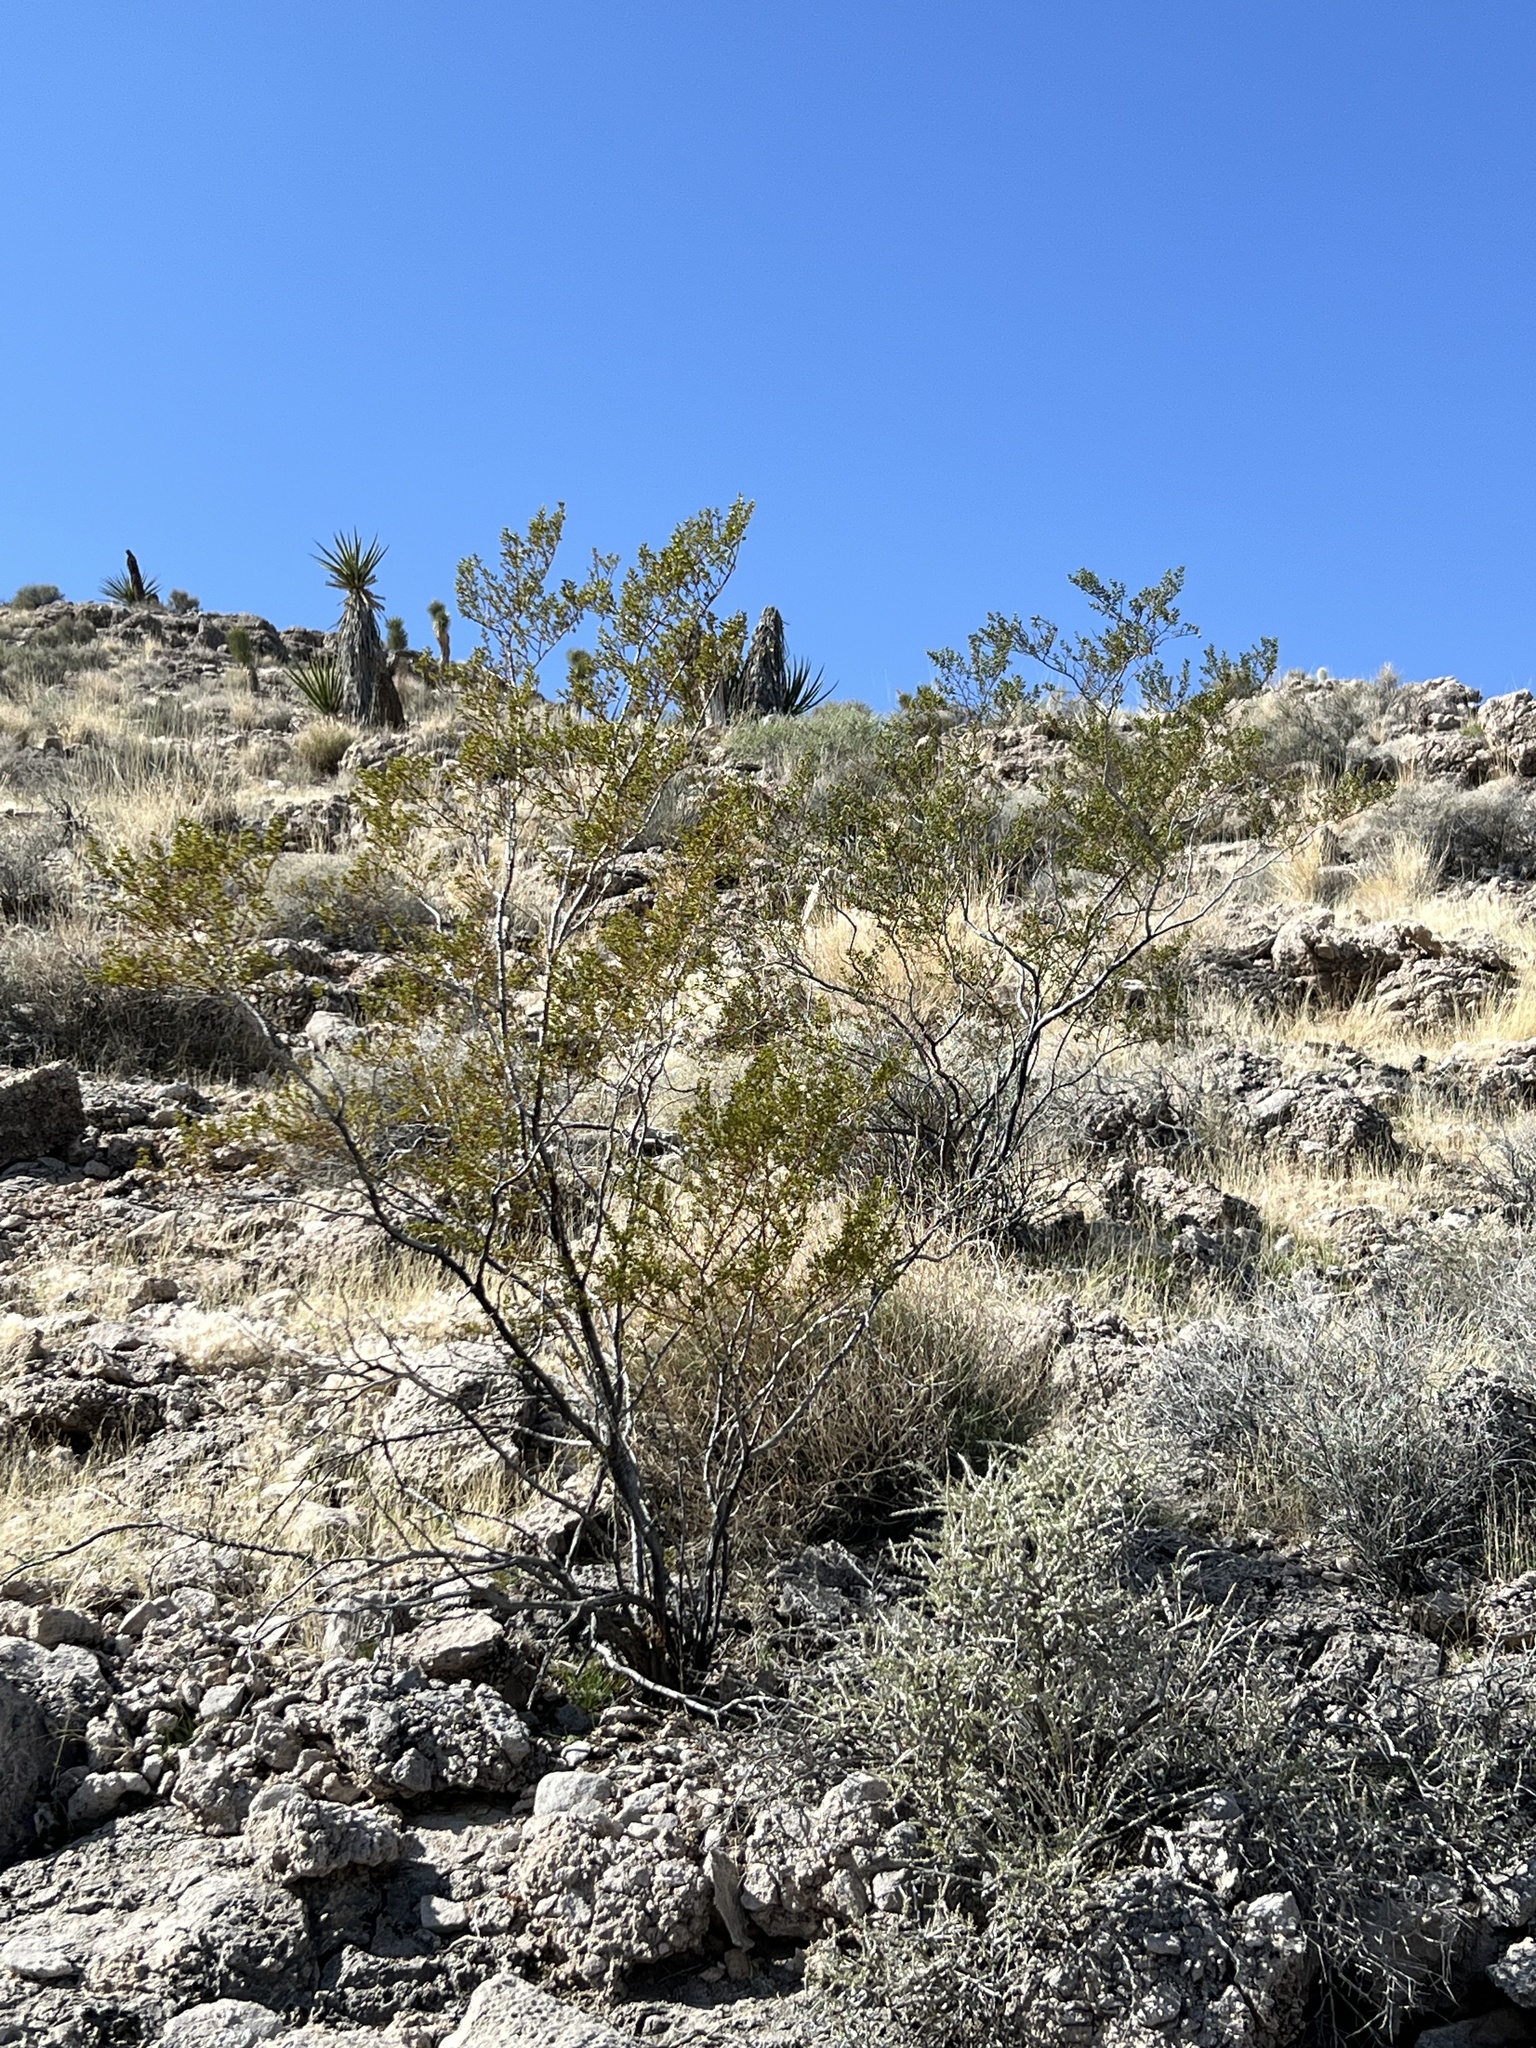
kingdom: Plantae
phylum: Tracheophyta
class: Magnoliopsida
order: Zygophyllales
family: Zygophyllaceae
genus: Larrea
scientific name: Larrea tridentata
